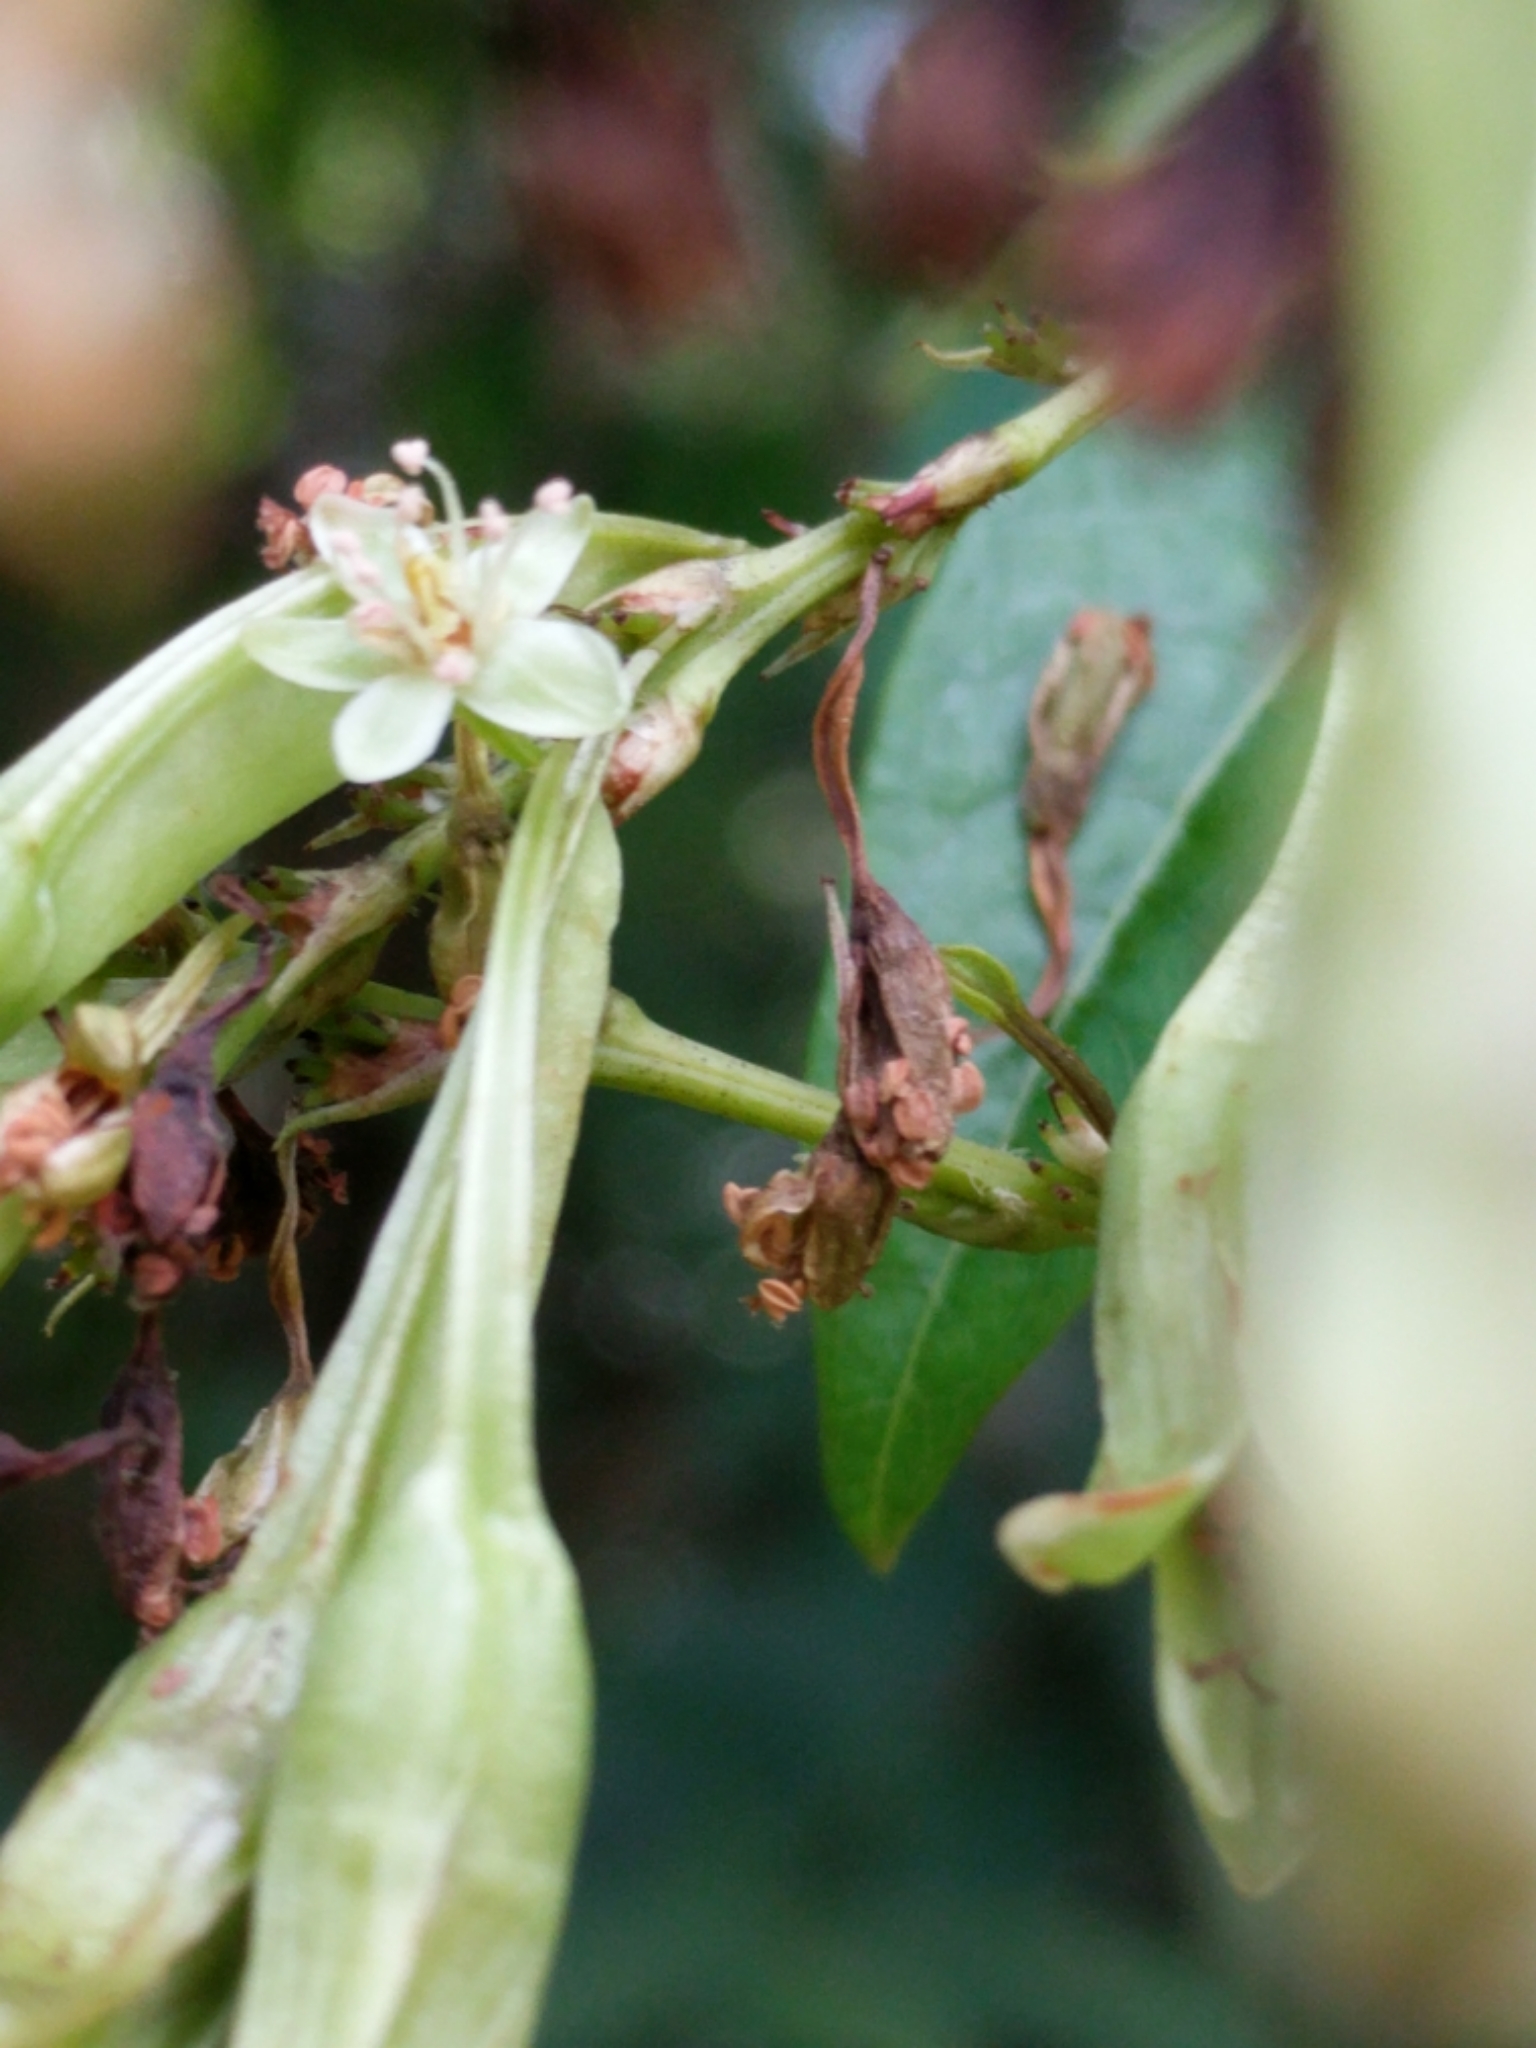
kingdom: Plantae
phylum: Tracheophyta
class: Magnoliopsida
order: Caryophyllales
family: Polygonaceae
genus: Brunnichia
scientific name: Brunnichia ovata
